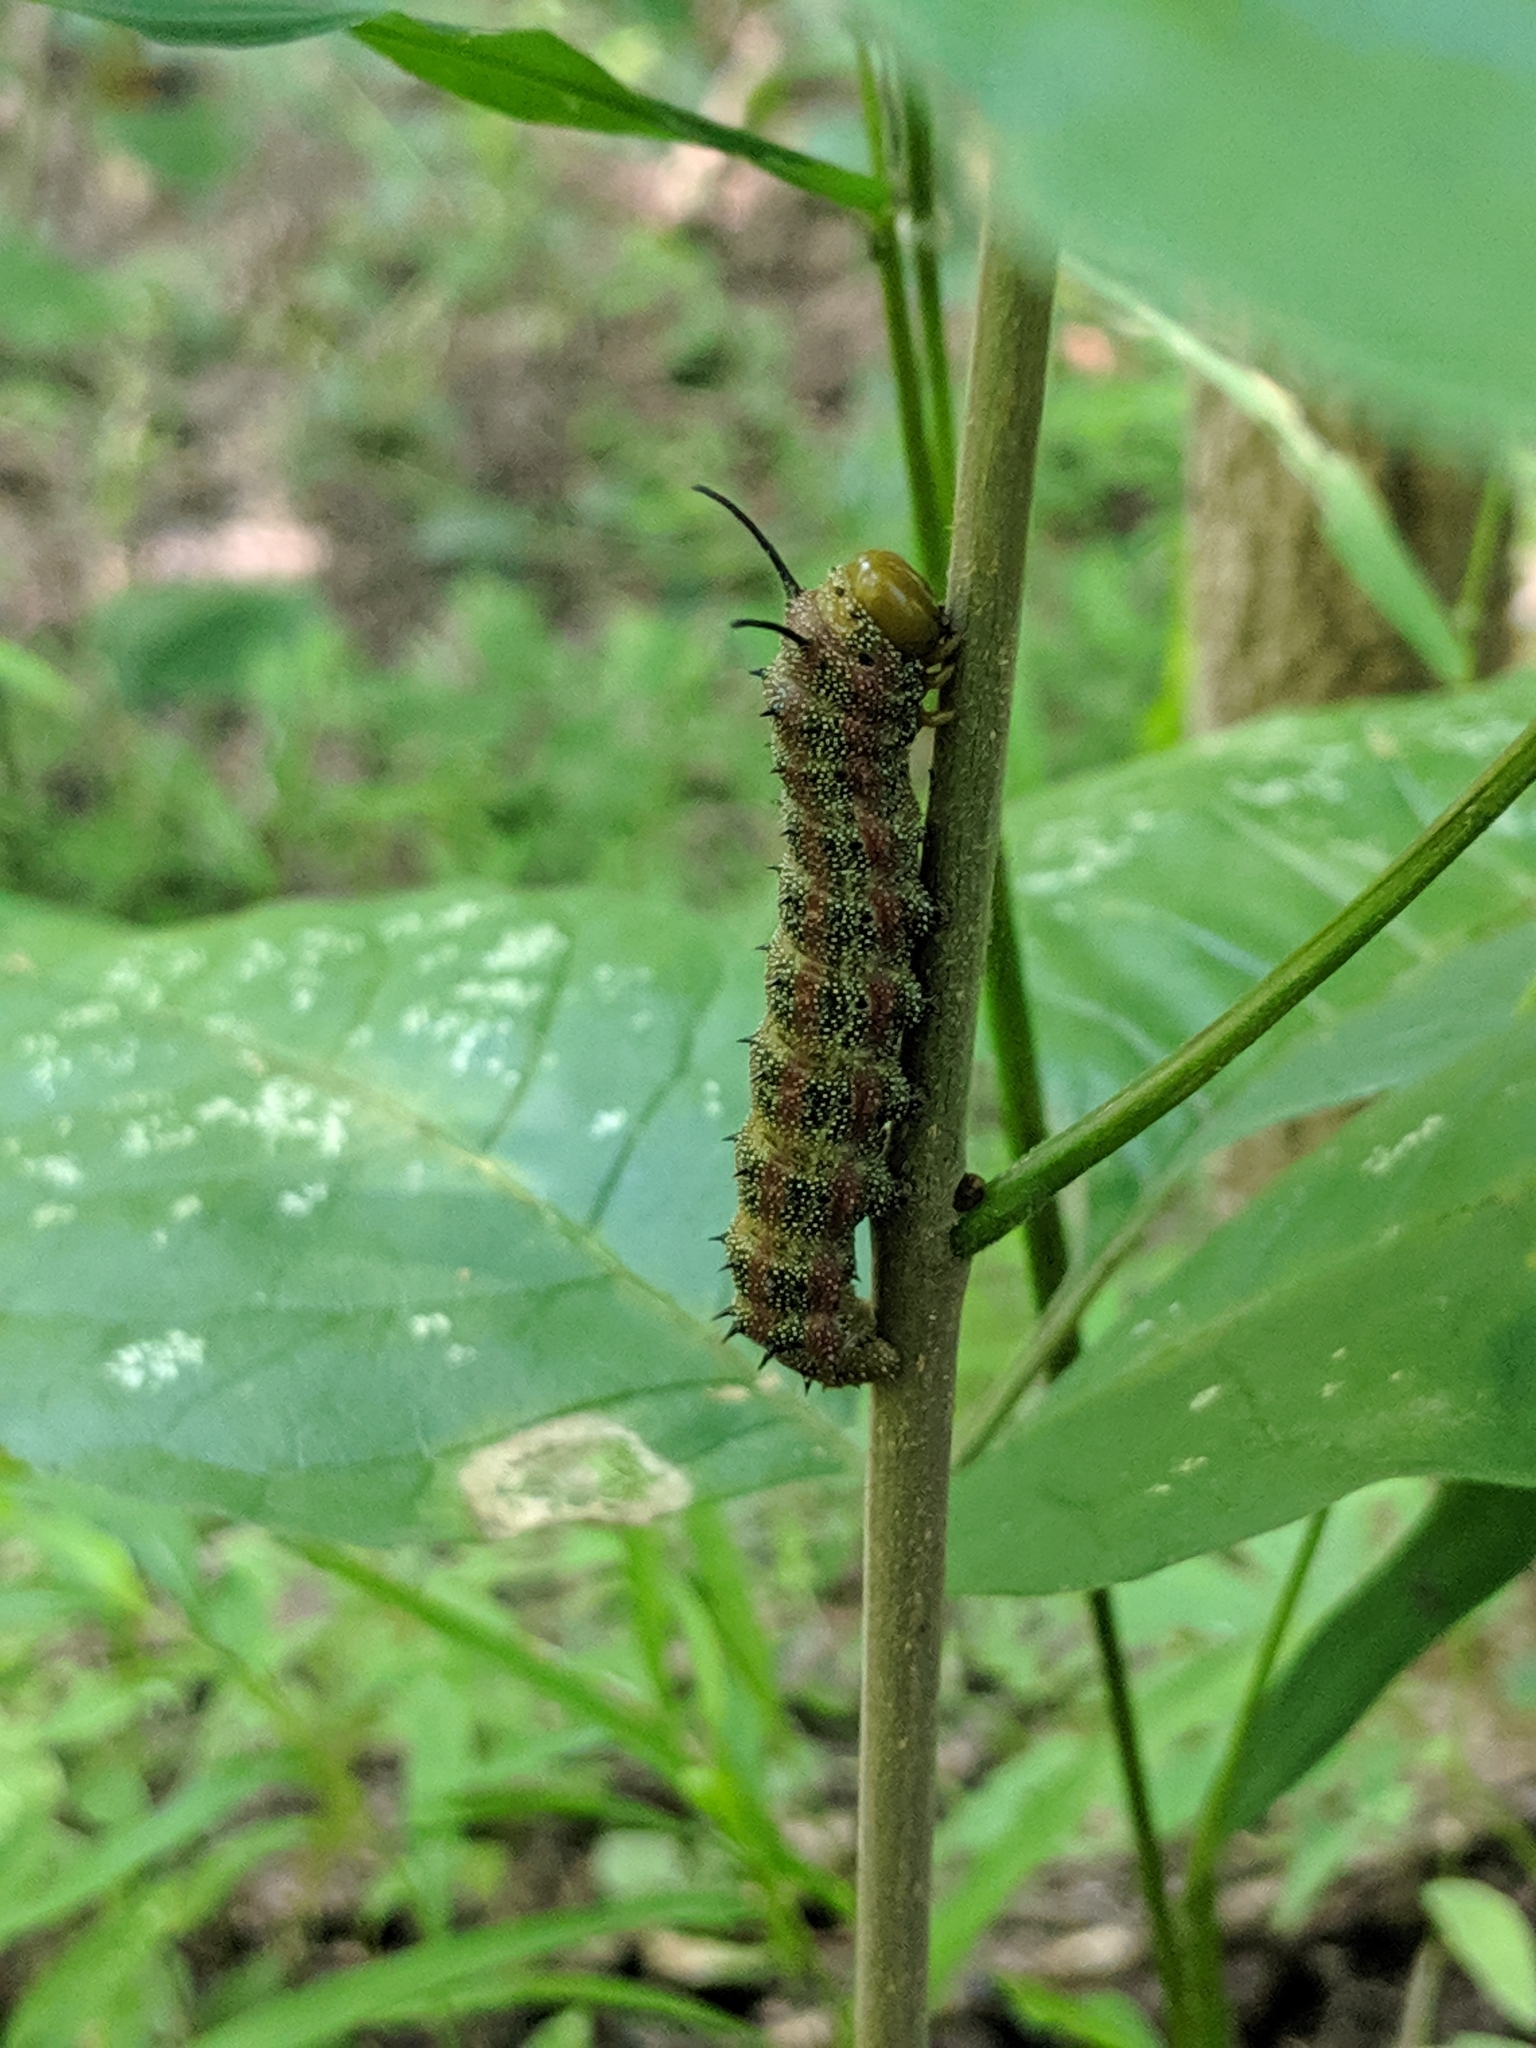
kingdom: Animalia
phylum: Arthropoda
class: Insecta
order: Lepidoptera
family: Saturniidae
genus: Anisota
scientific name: Anisota virginiensis
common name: Pink striped oakworm moth
